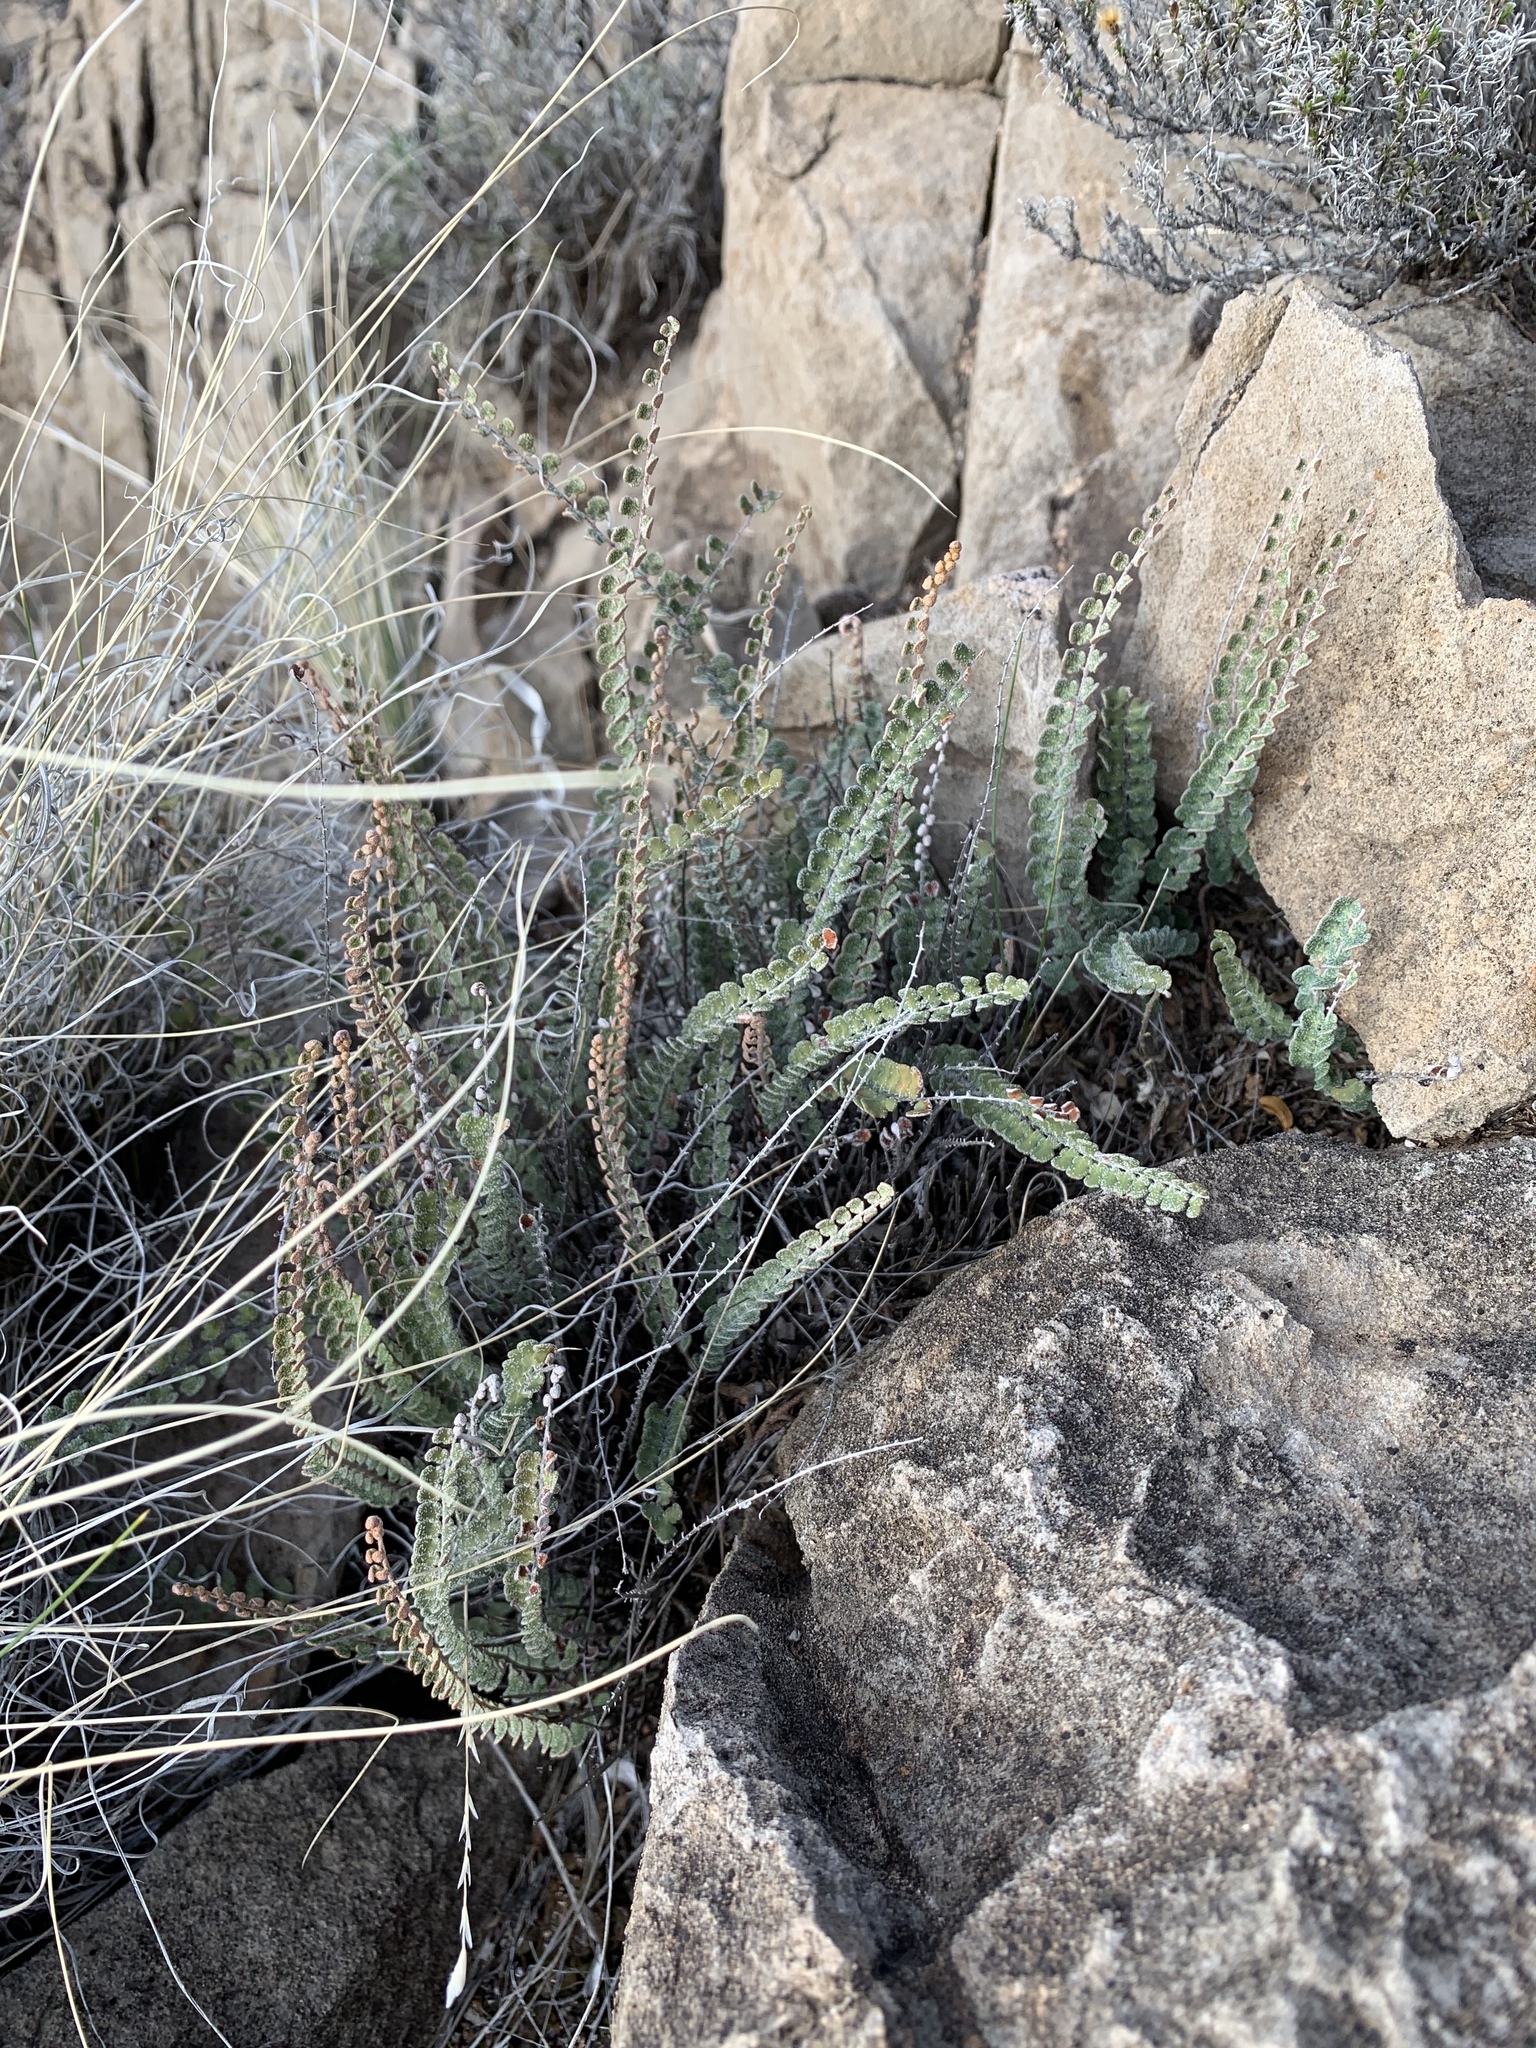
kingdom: Plantae
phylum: Tracheophyta
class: Polypodiopsida
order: Polypodiales
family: Pteridaceae
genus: Astrolepis
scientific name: Astrolepis cochisensis
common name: Scaly cloak fern
